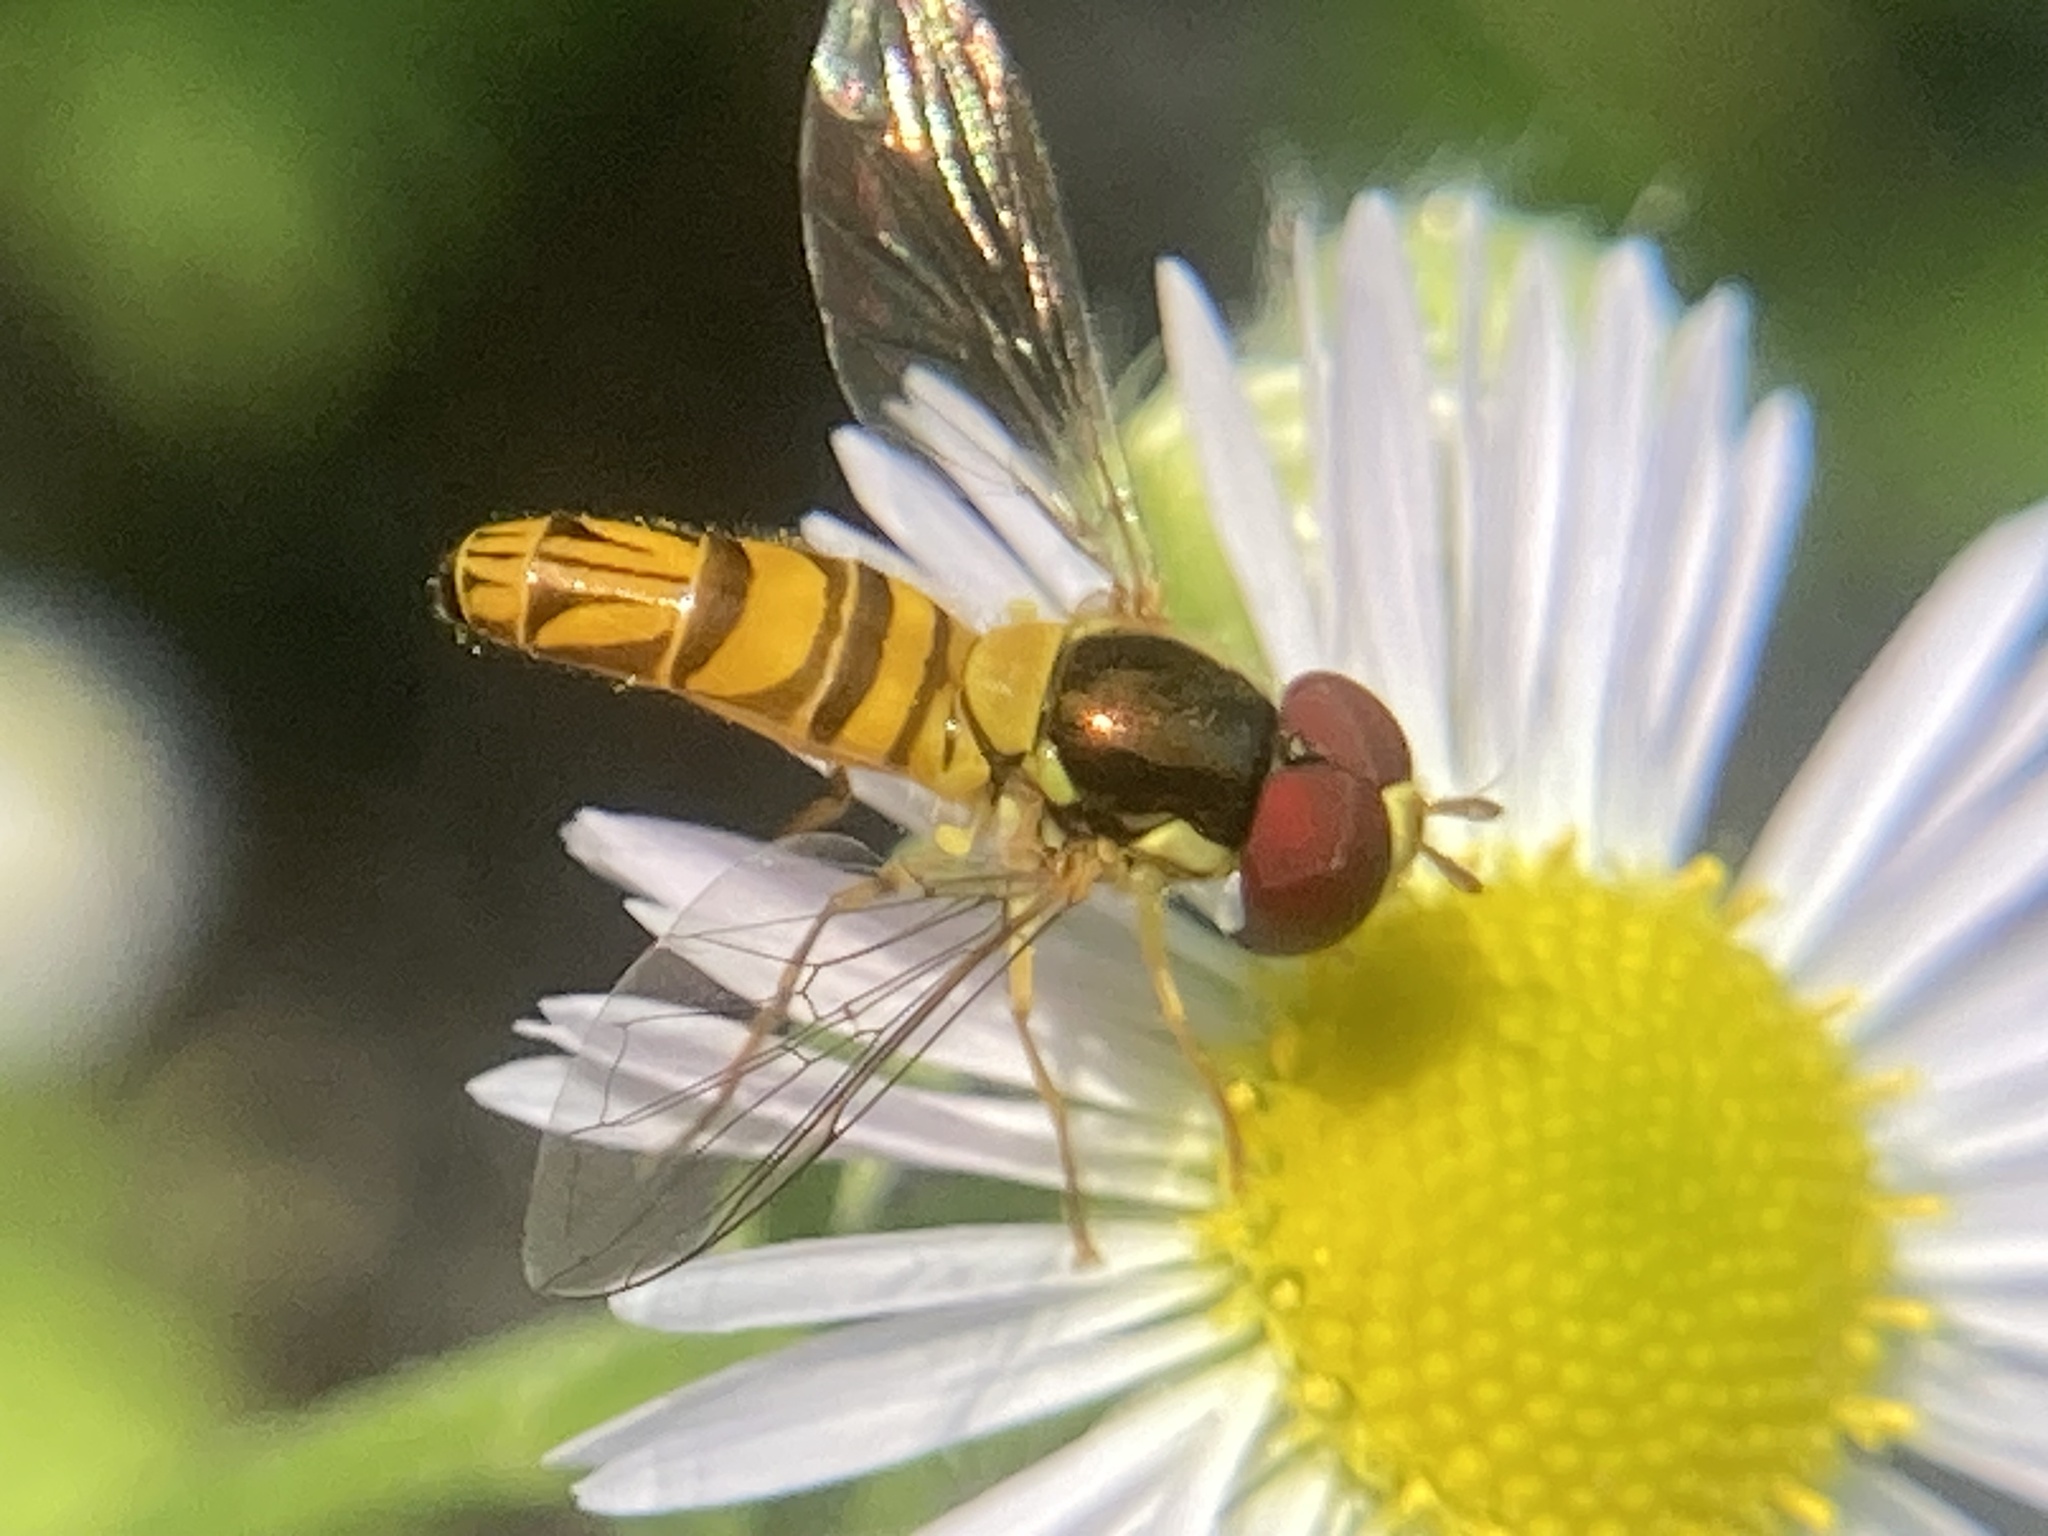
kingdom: Animalia
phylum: Arthropoda
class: Insecta
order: Diptera
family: Syrphidae
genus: Allograpta
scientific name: Allograpta obliqua
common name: Common oblique syrphid
